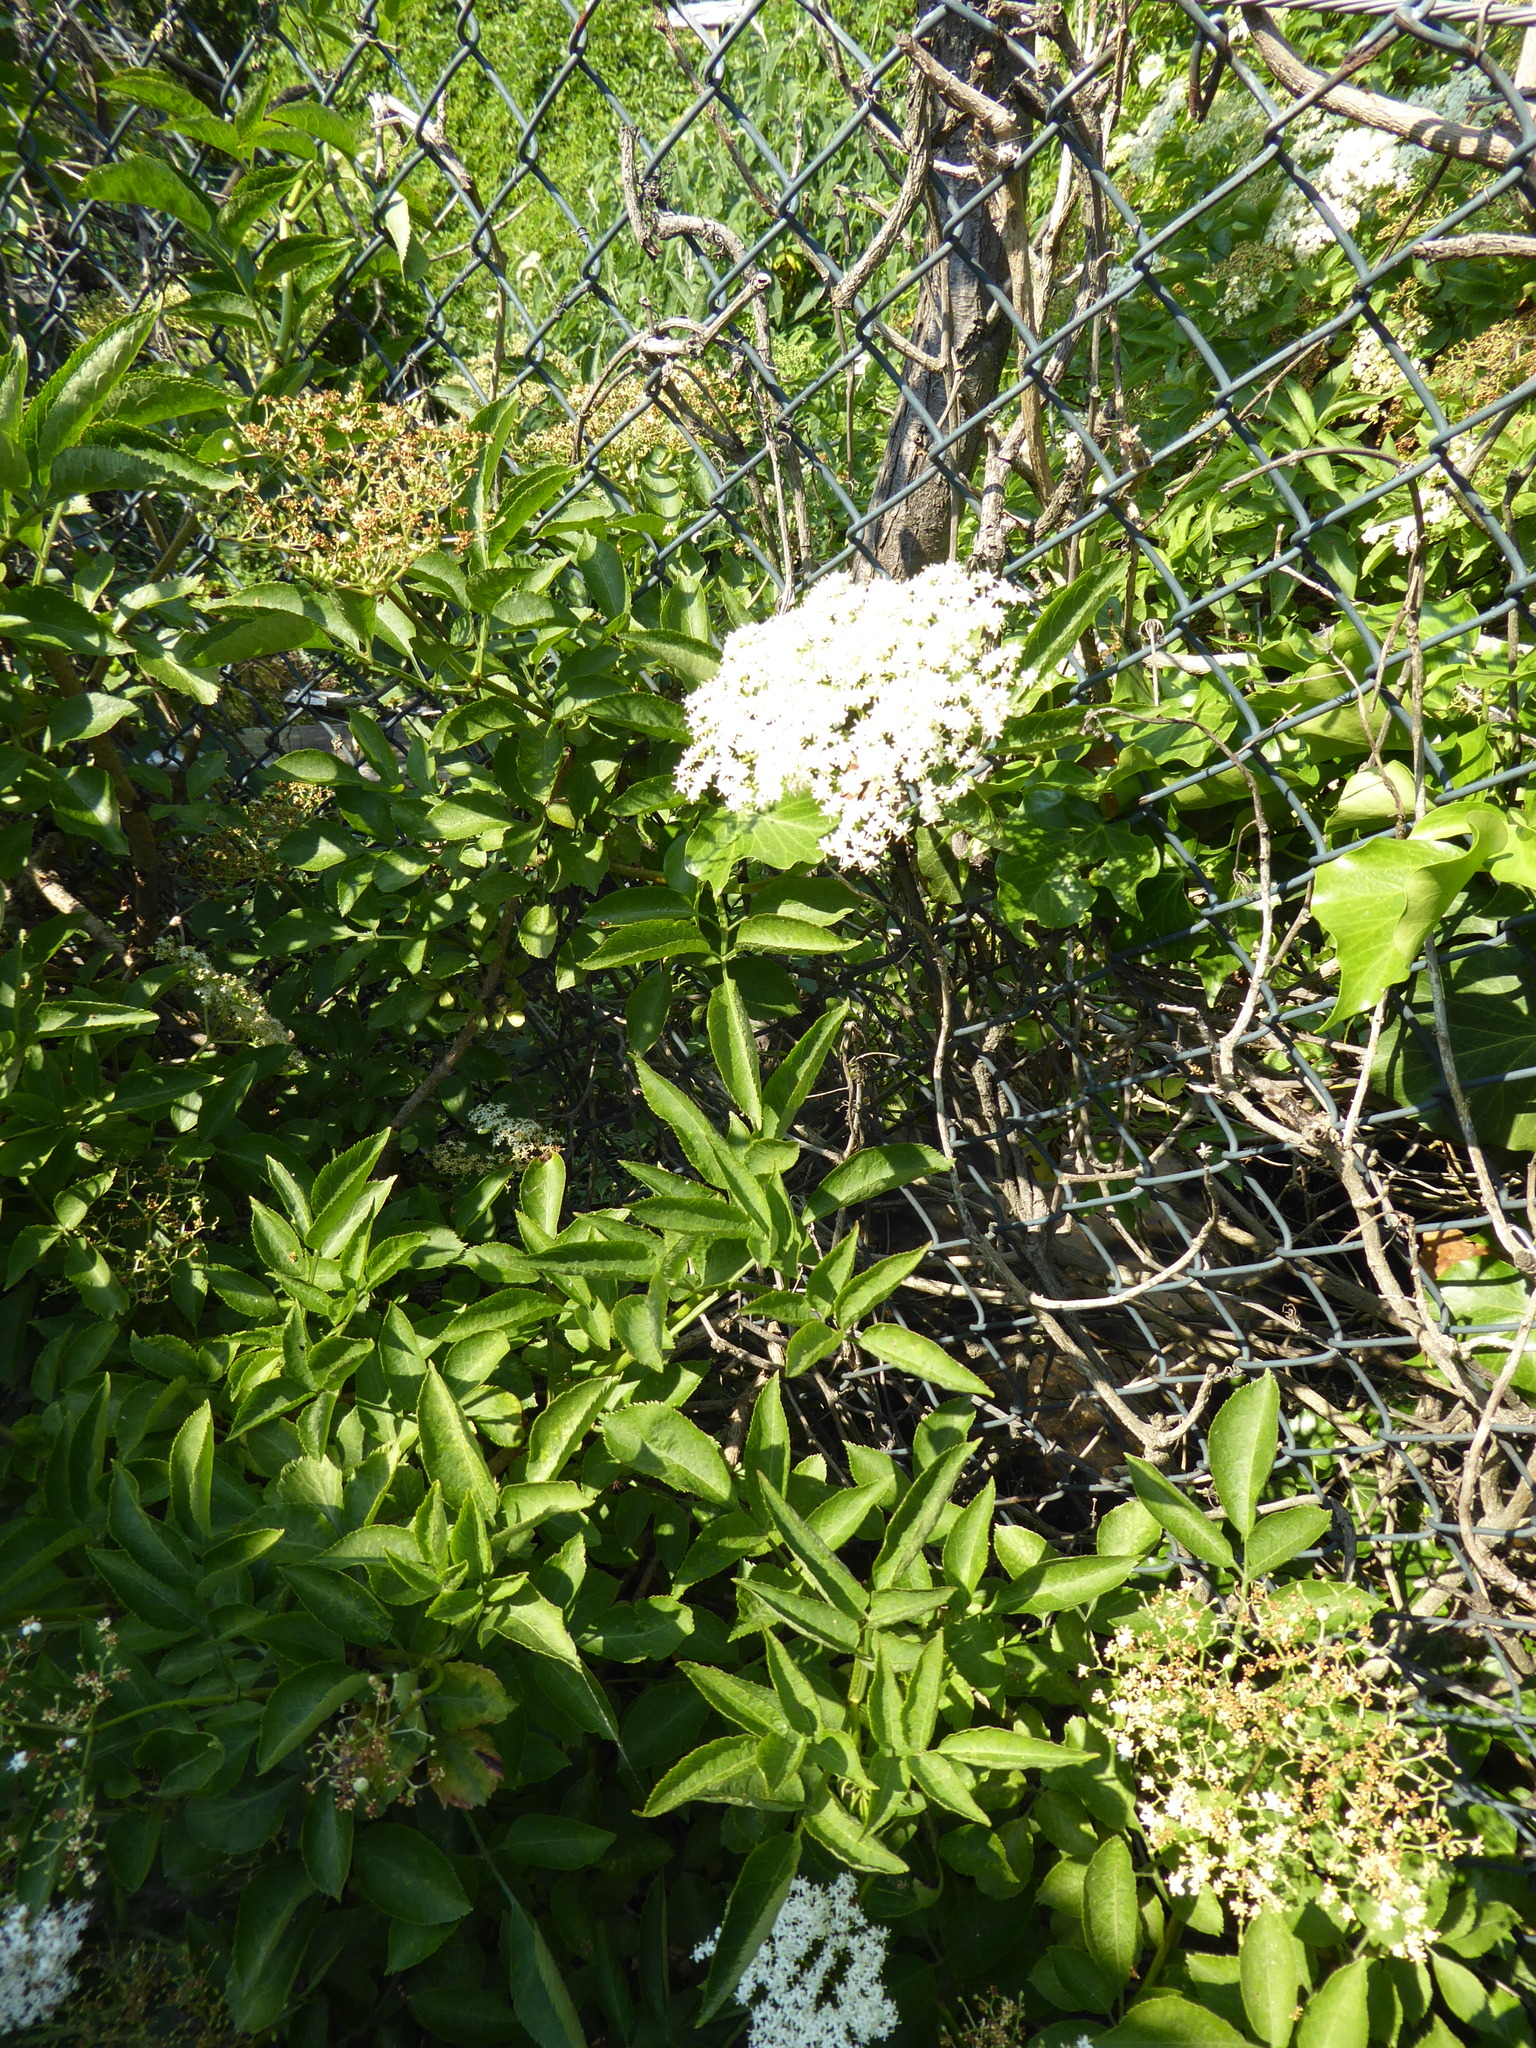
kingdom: Plantae
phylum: Tracheophyta
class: Magnoliopsida
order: Dipsacales
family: Viburnaceae
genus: Sambucus
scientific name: Sambucus nigra
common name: Elder
